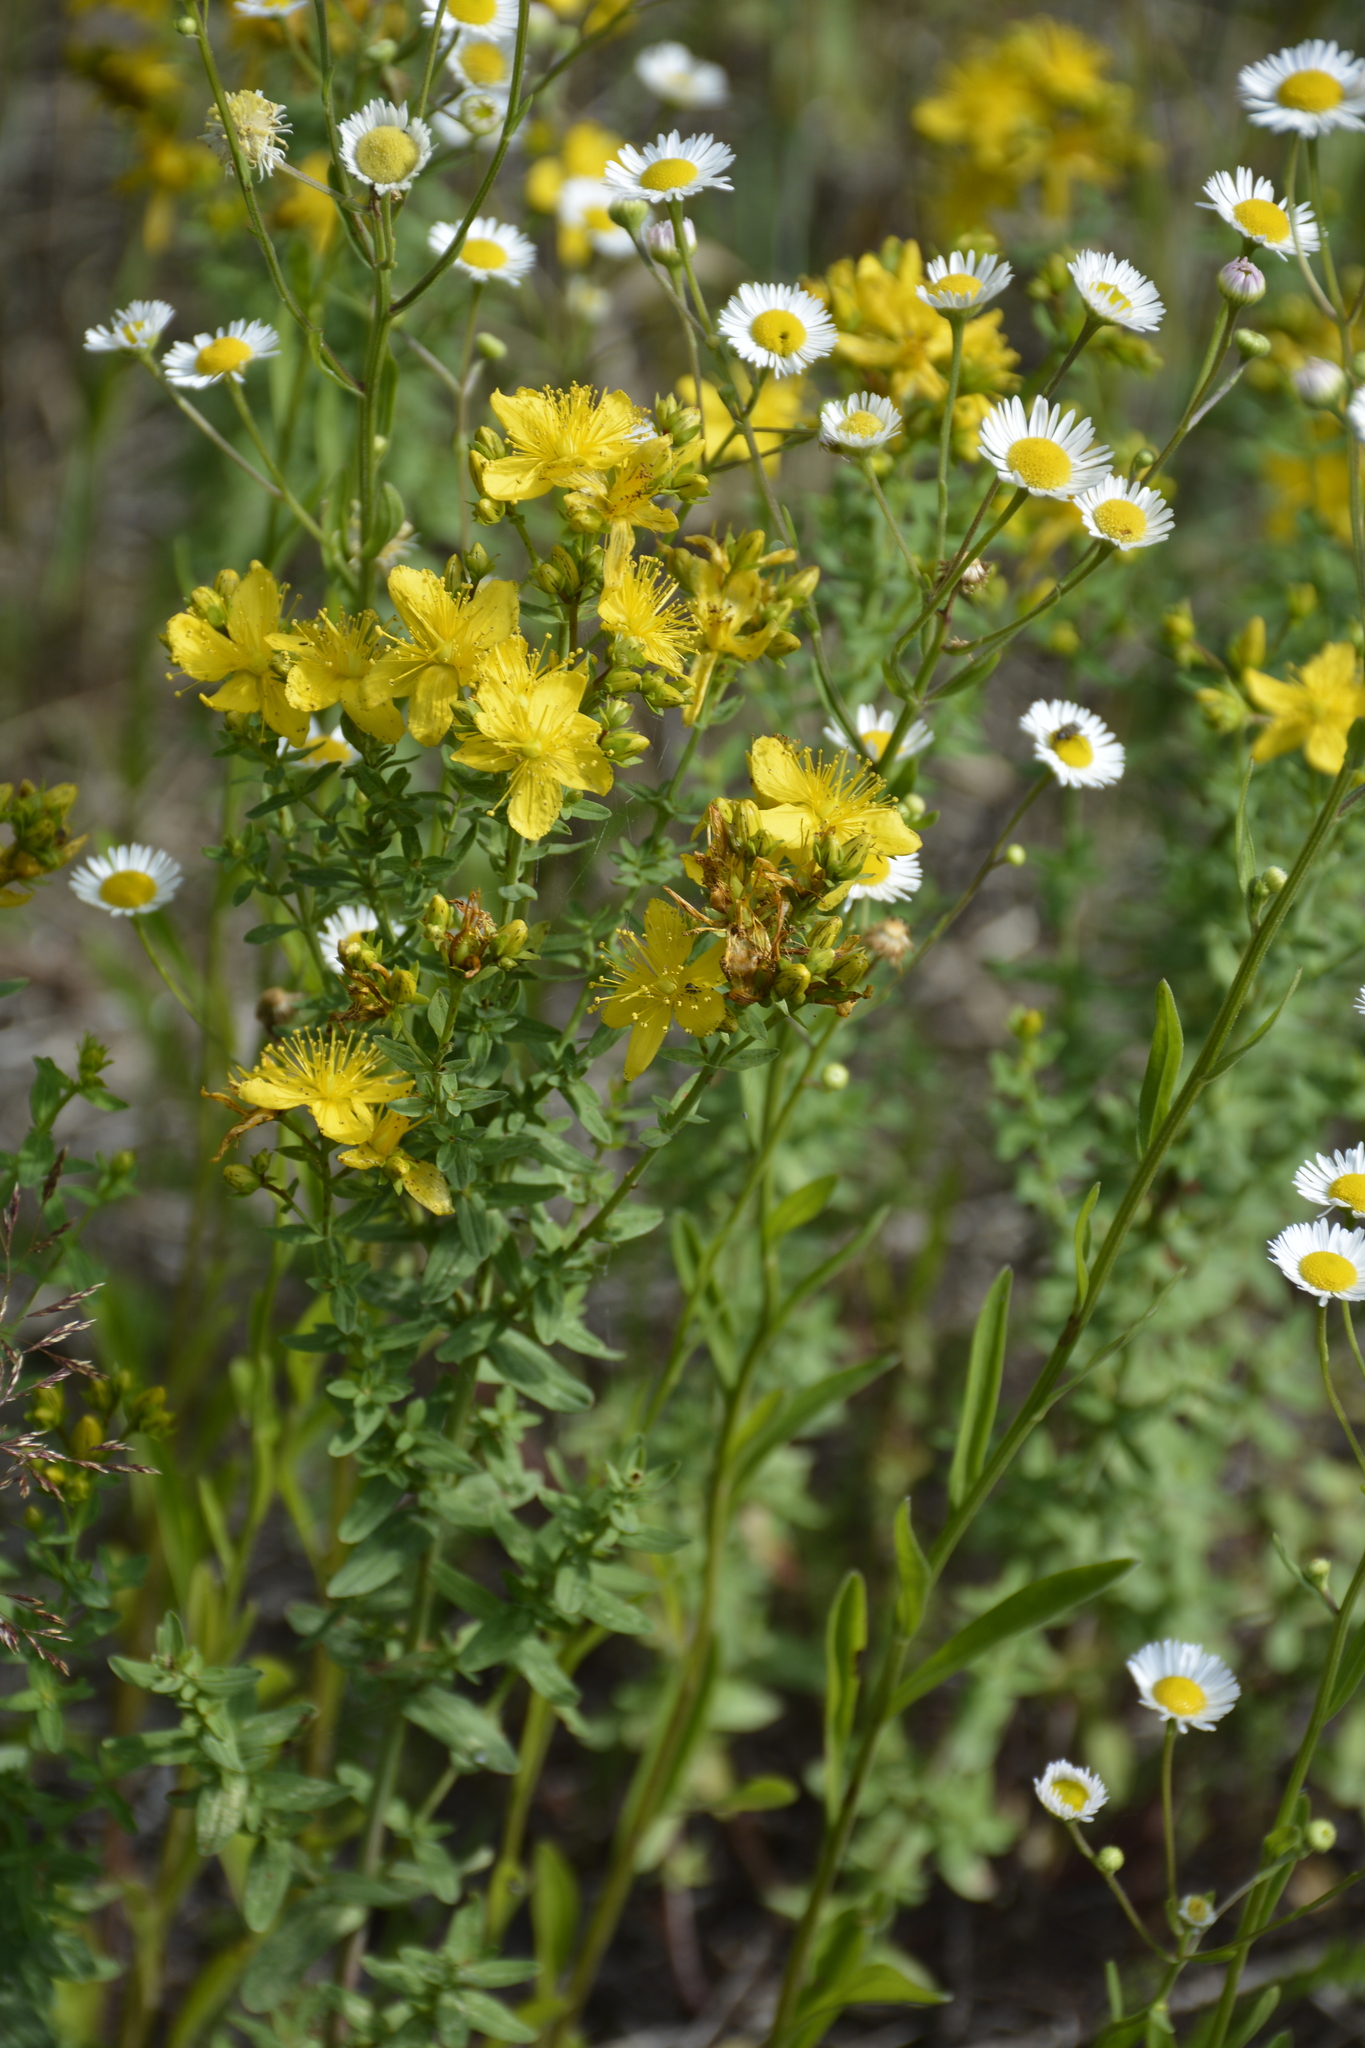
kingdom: Plantae
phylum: Tracheophyta
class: Magnoliopsida
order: Malpighiales
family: Hypericaceae
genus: Hypericum
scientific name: Hypericum perforatum
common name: Common st. johnswort
